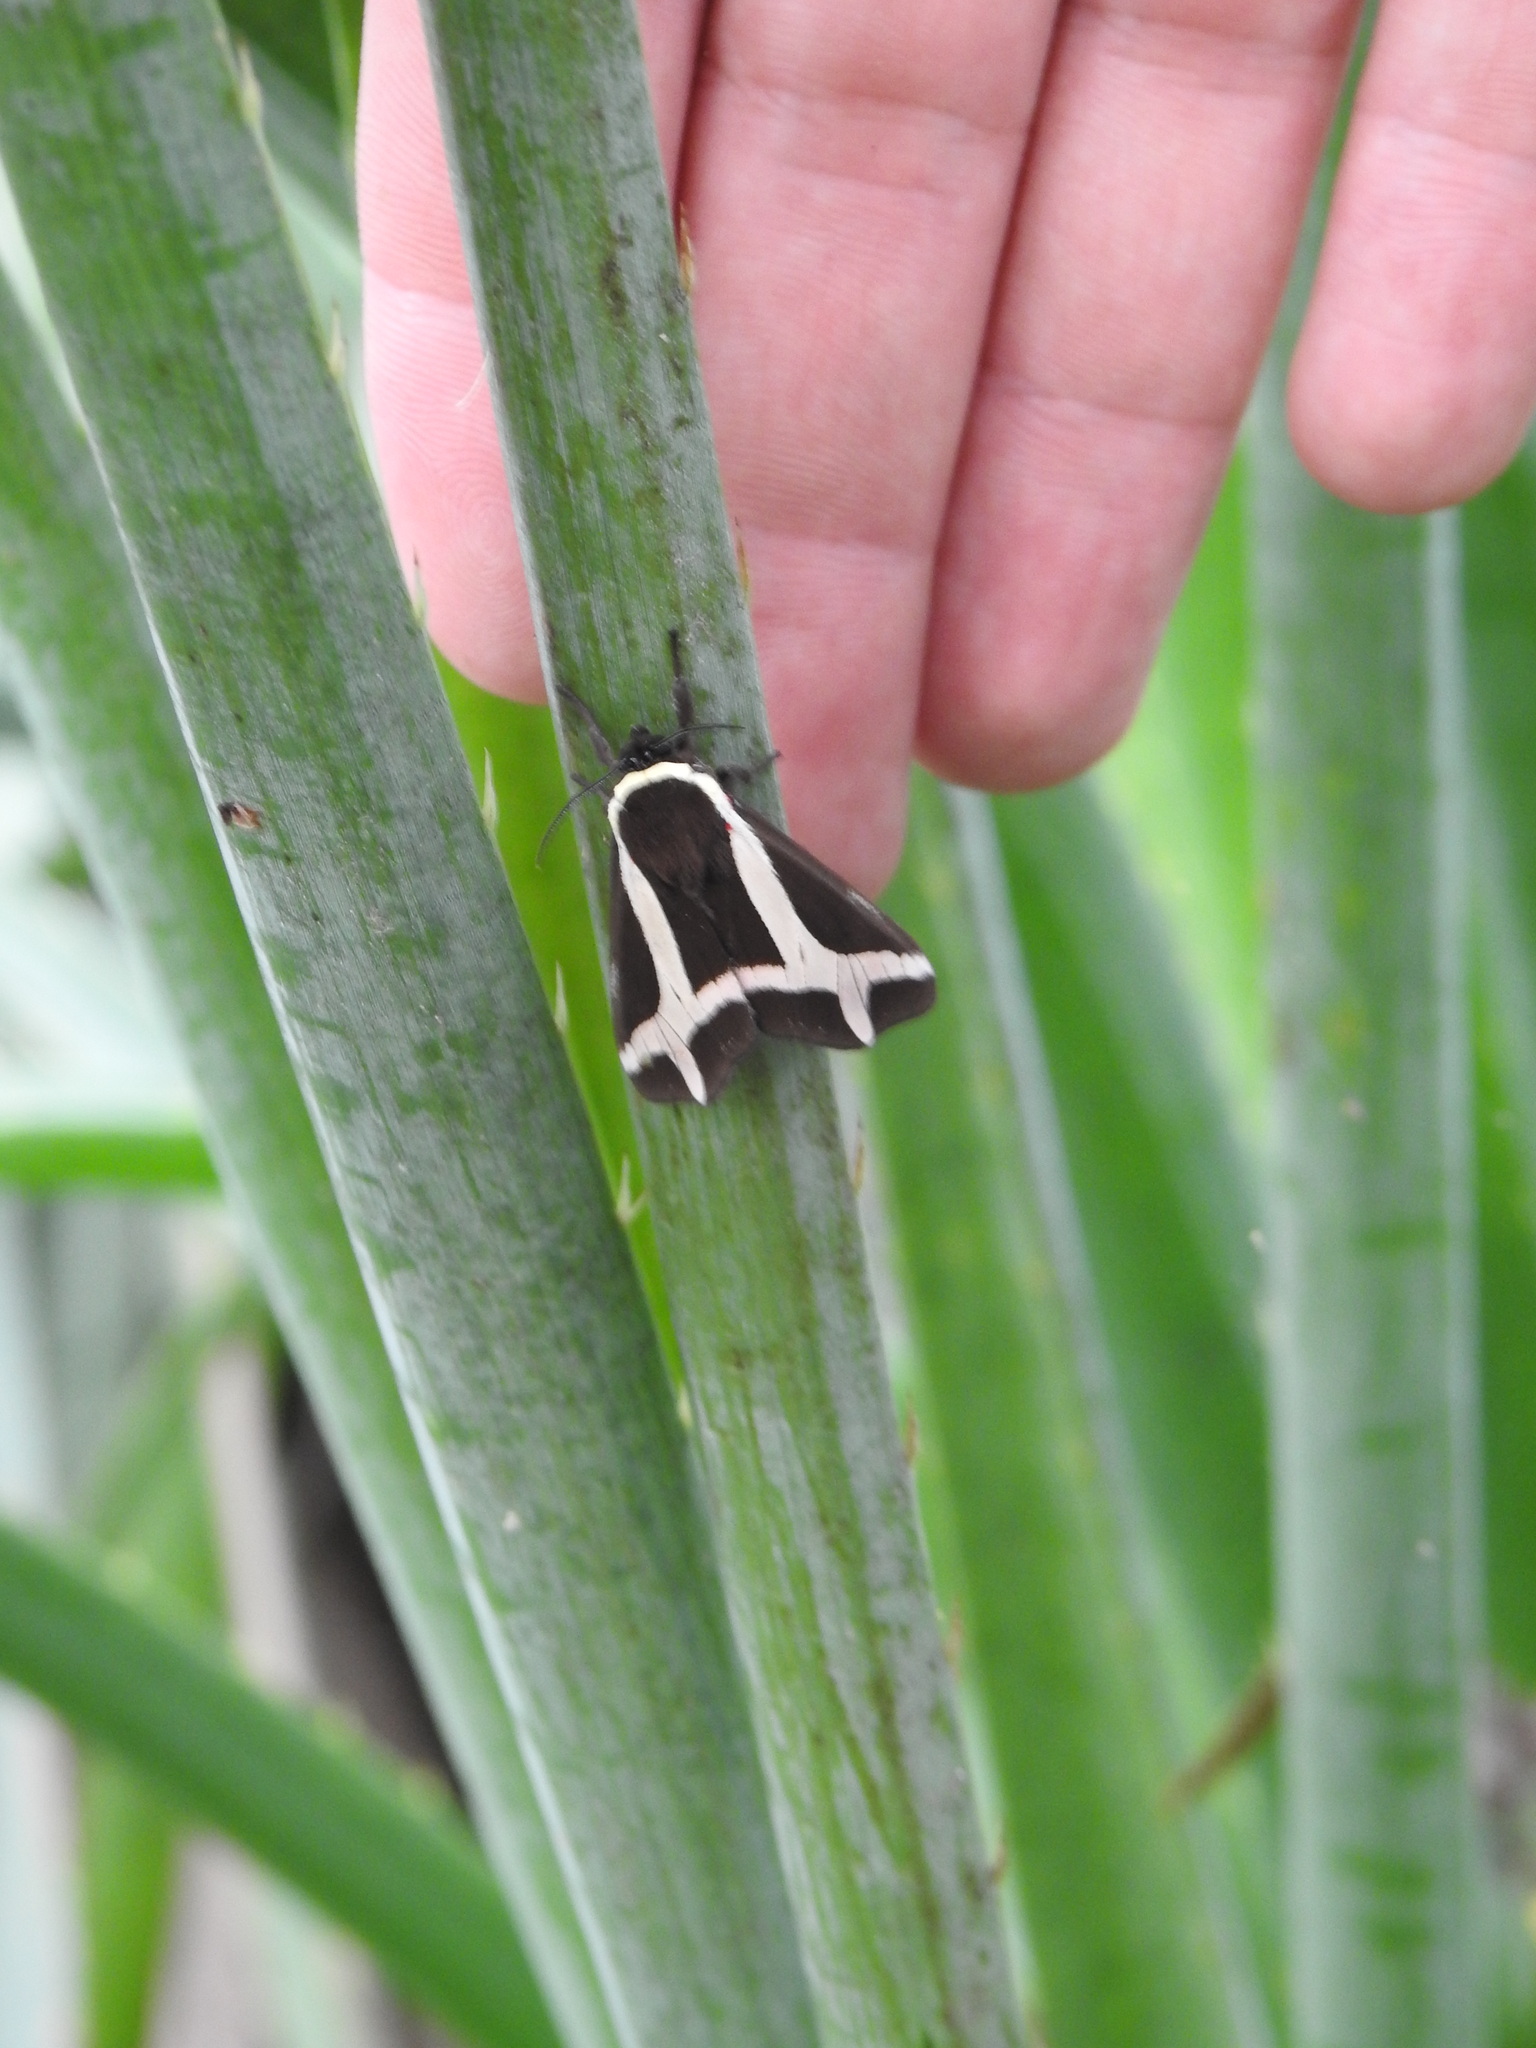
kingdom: Animalia
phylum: Arthropoda
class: Insecta
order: Lepidoptera
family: Erebidae
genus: Dysschema
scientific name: Dysschema sacrifica
